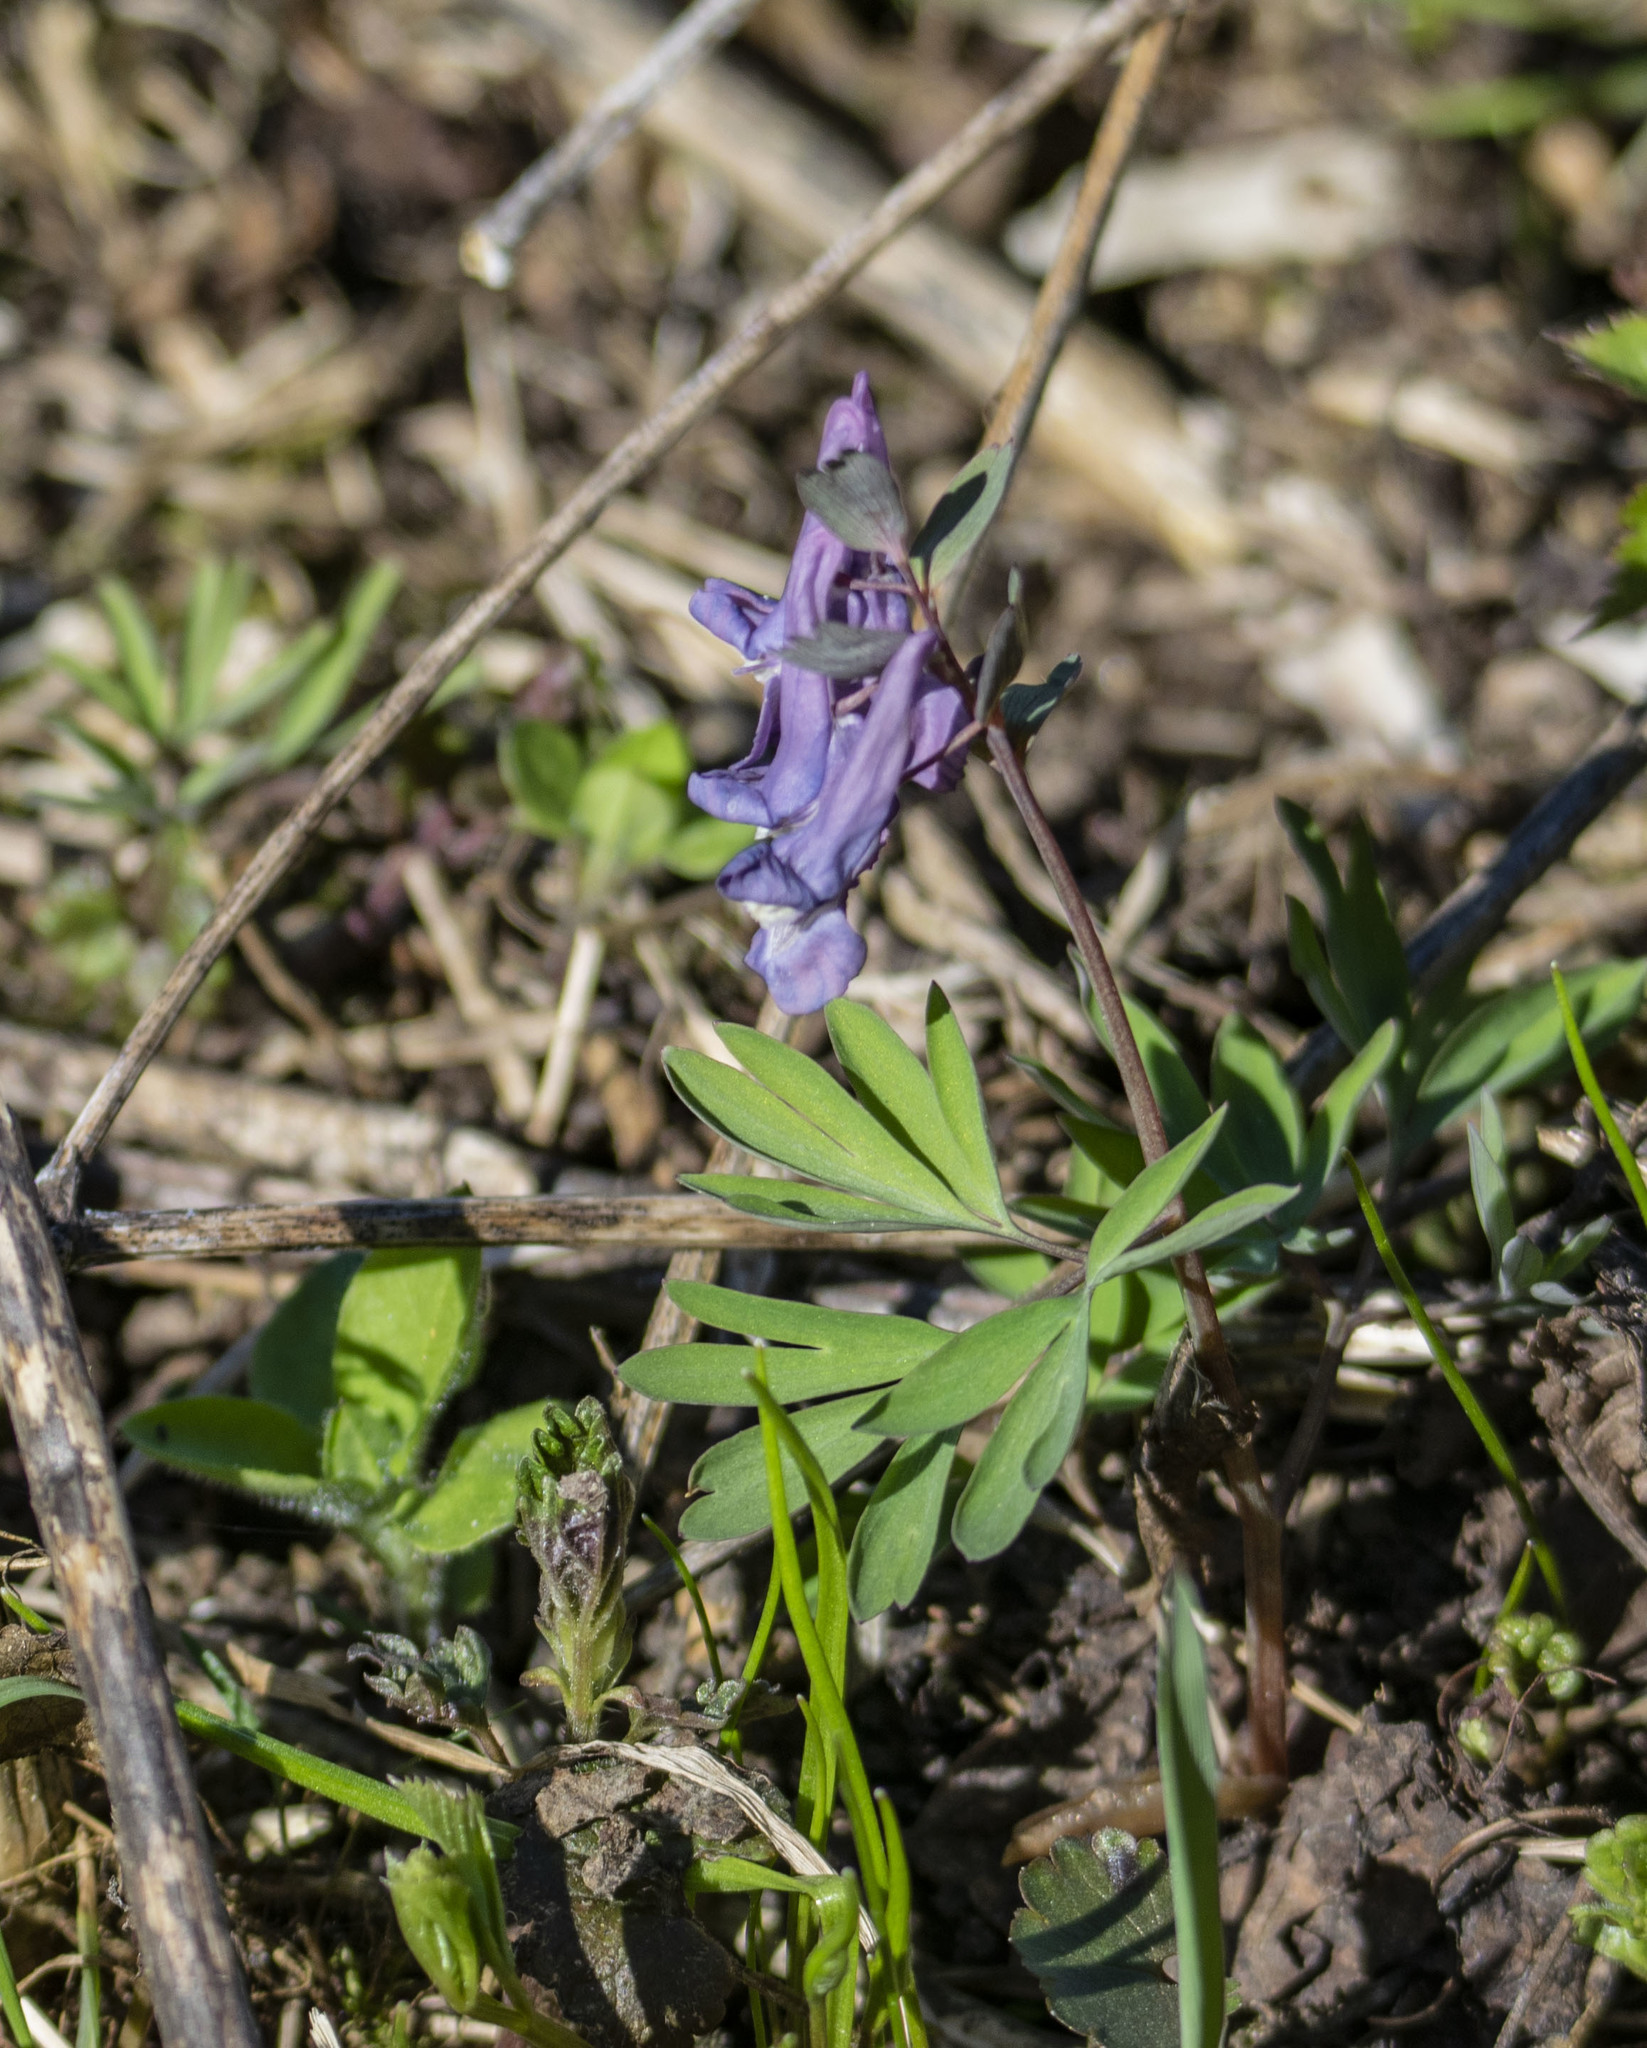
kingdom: Plantae
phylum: Tracheophyta
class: Magnoliopsida
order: Ranunculales
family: Papaveraceae
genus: Corydalis
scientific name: Corydalis solida
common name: Bird-in-a-bush
